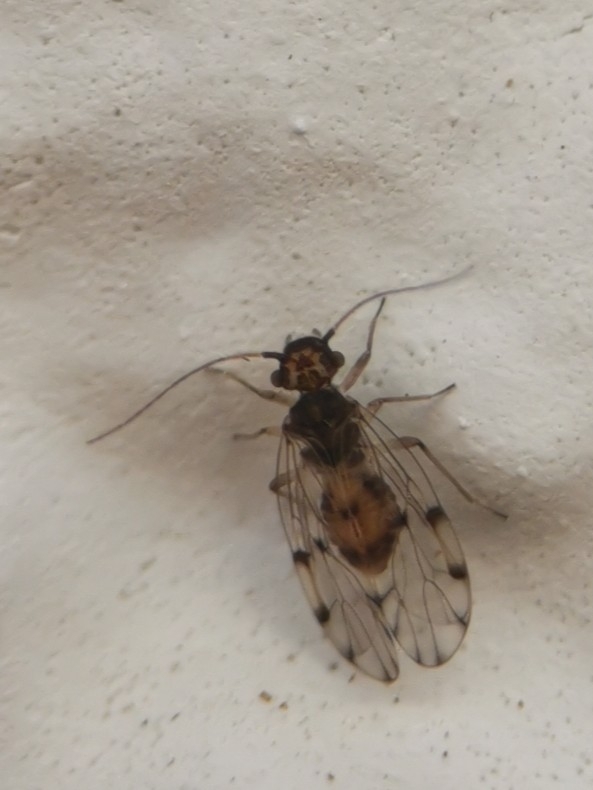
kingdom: Animalia
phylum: Arthropoda
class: Insecta
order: Psocodea
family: Ectopsocidae
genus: Ectopsocus
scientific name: Ectopsocus petersi
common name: Medium-sized bark louse
